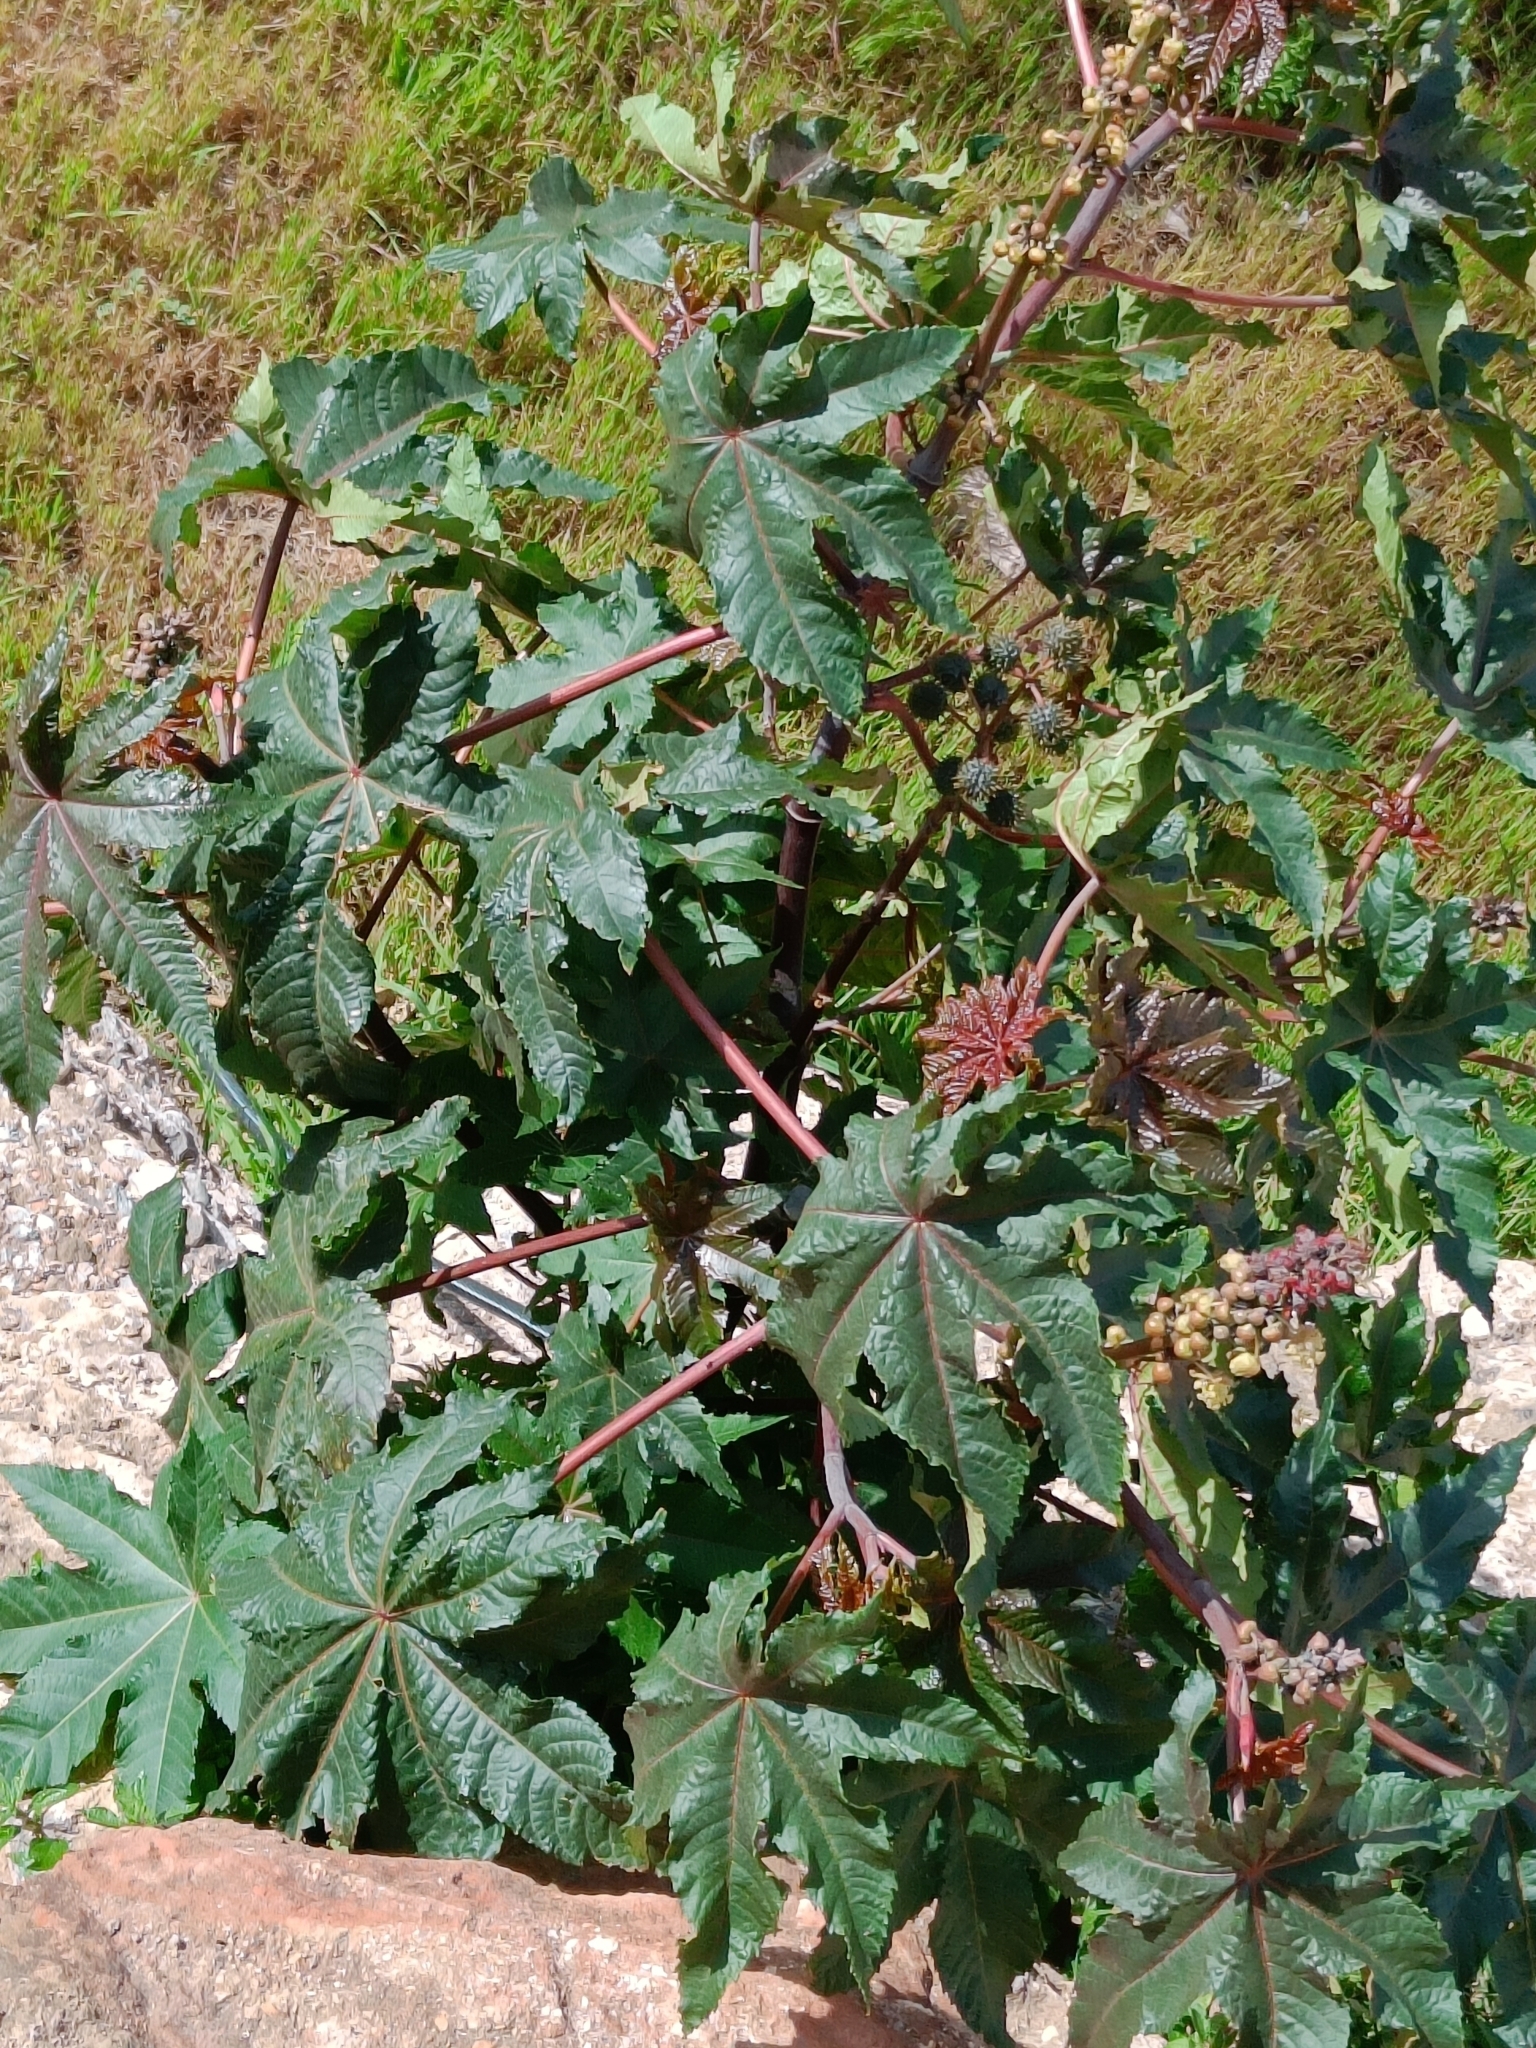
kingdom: Plantae
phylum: Tracheophyta
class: Magnoliopsida
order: Malpighiales
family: Euphorbiaceae
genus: Ricinus
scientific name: Ricinus communis
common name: Castor-oil-plant
